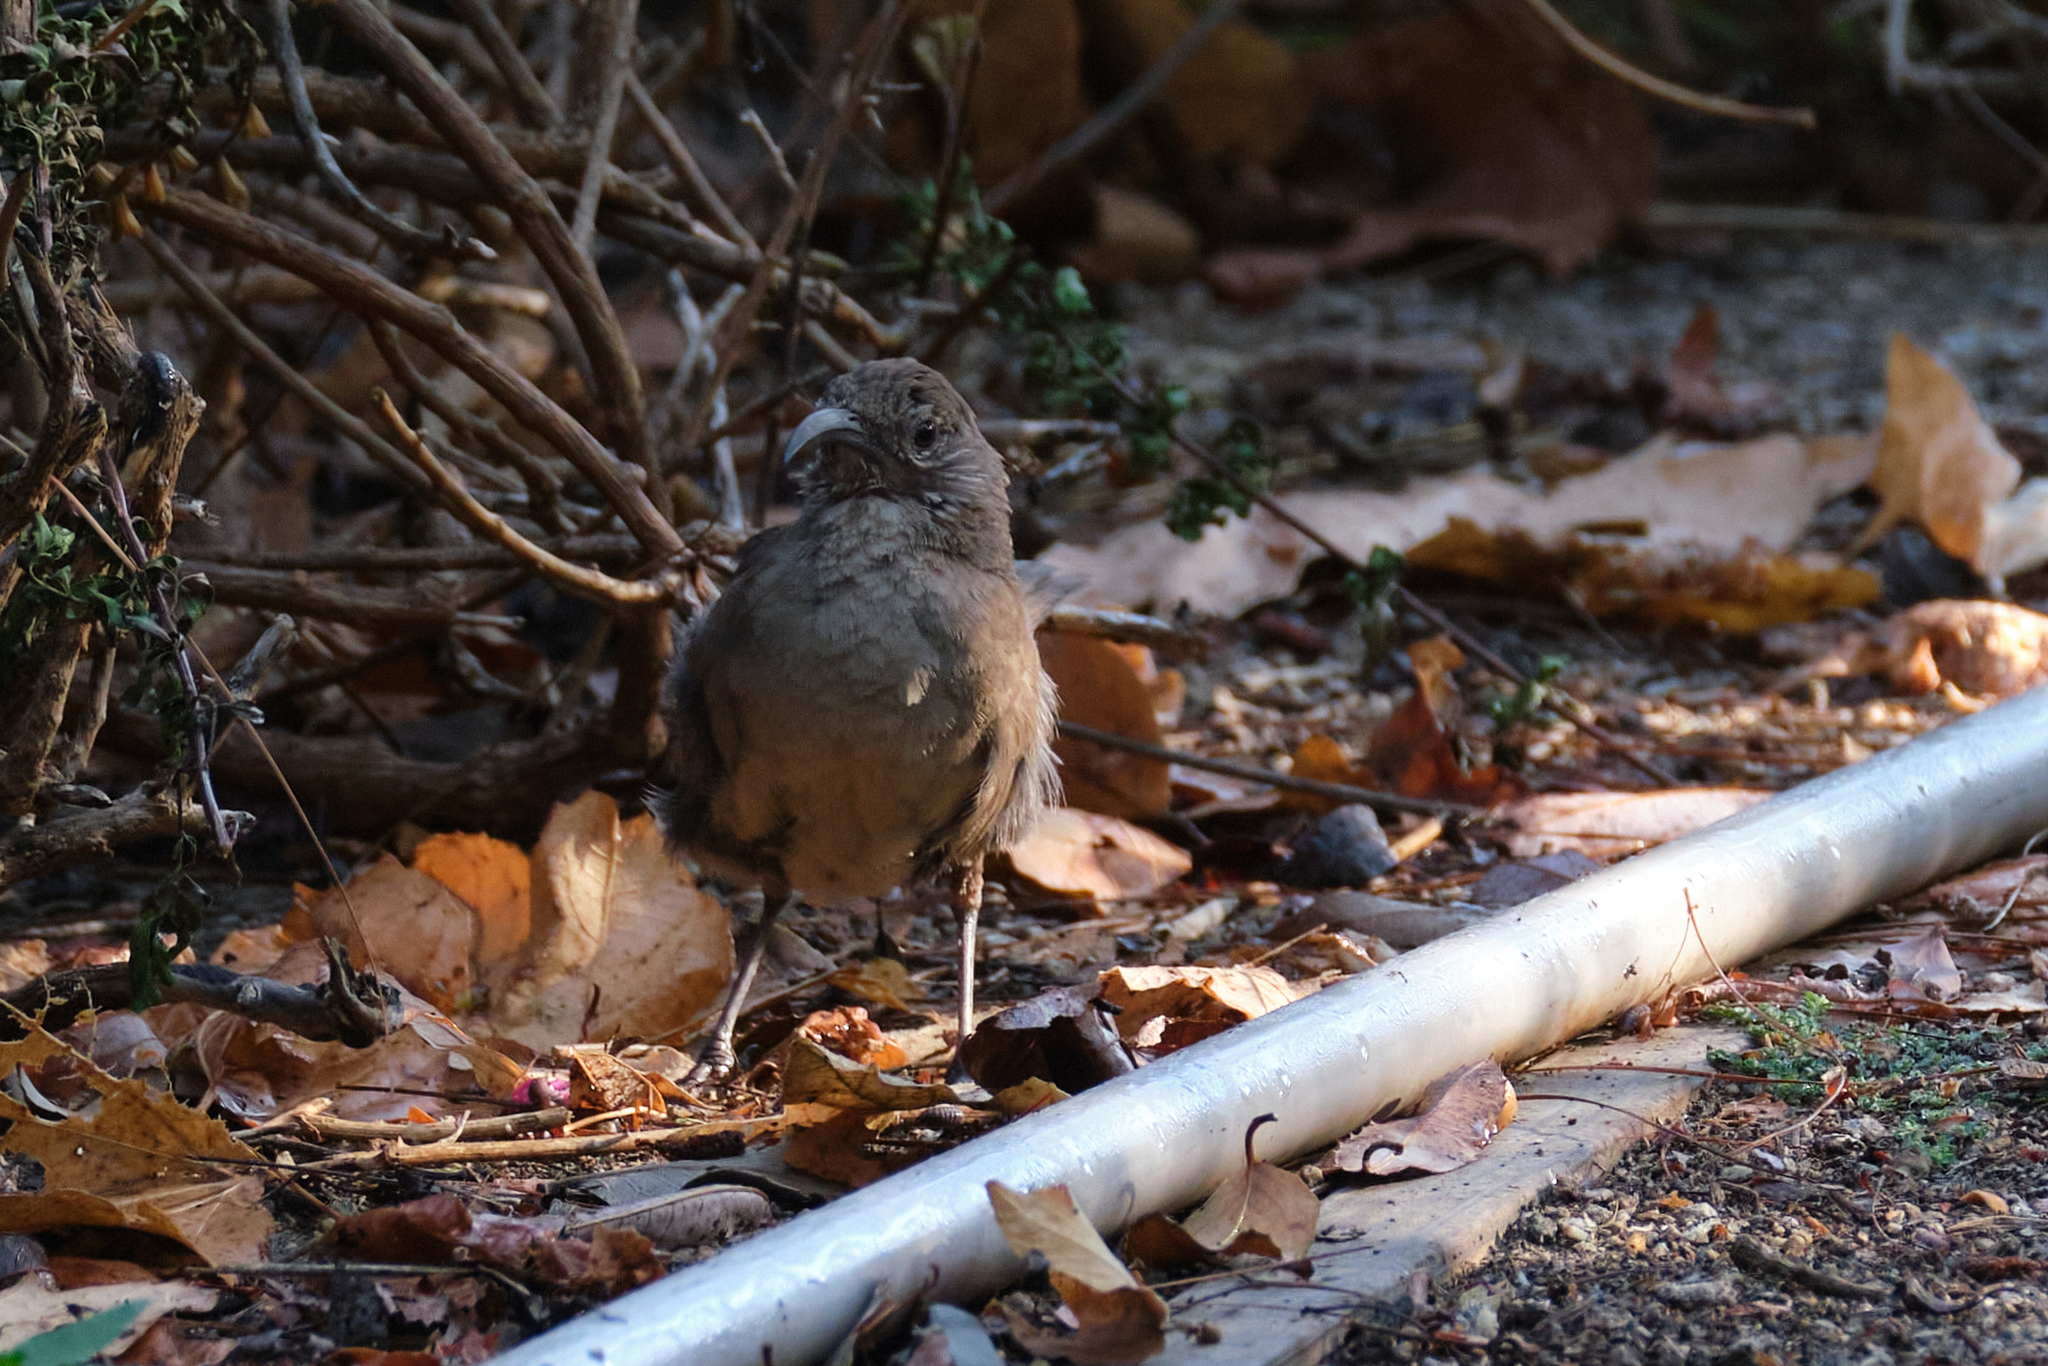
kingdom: Animalia
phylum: Chordata
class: Aves
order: Passeriformes
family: Mimidae
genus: Toxostoma
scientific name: Toxostoma redivivum
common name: California thrasher
